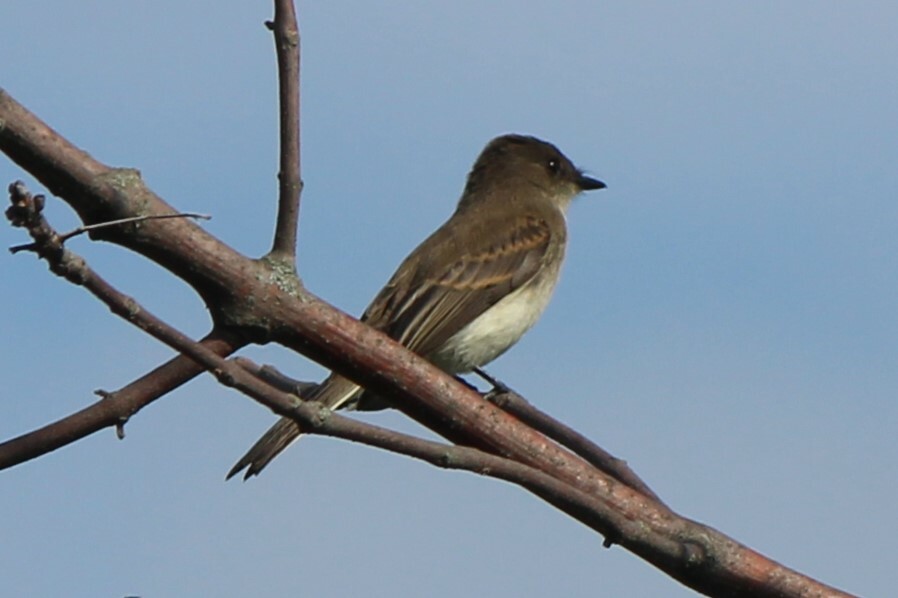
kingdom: Animalia
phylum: Chordata
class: Aves
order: Passeriformes
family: Tyrannidae
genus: Sayornis
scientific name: Sayornis phoebe
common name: Eastern phoebe
